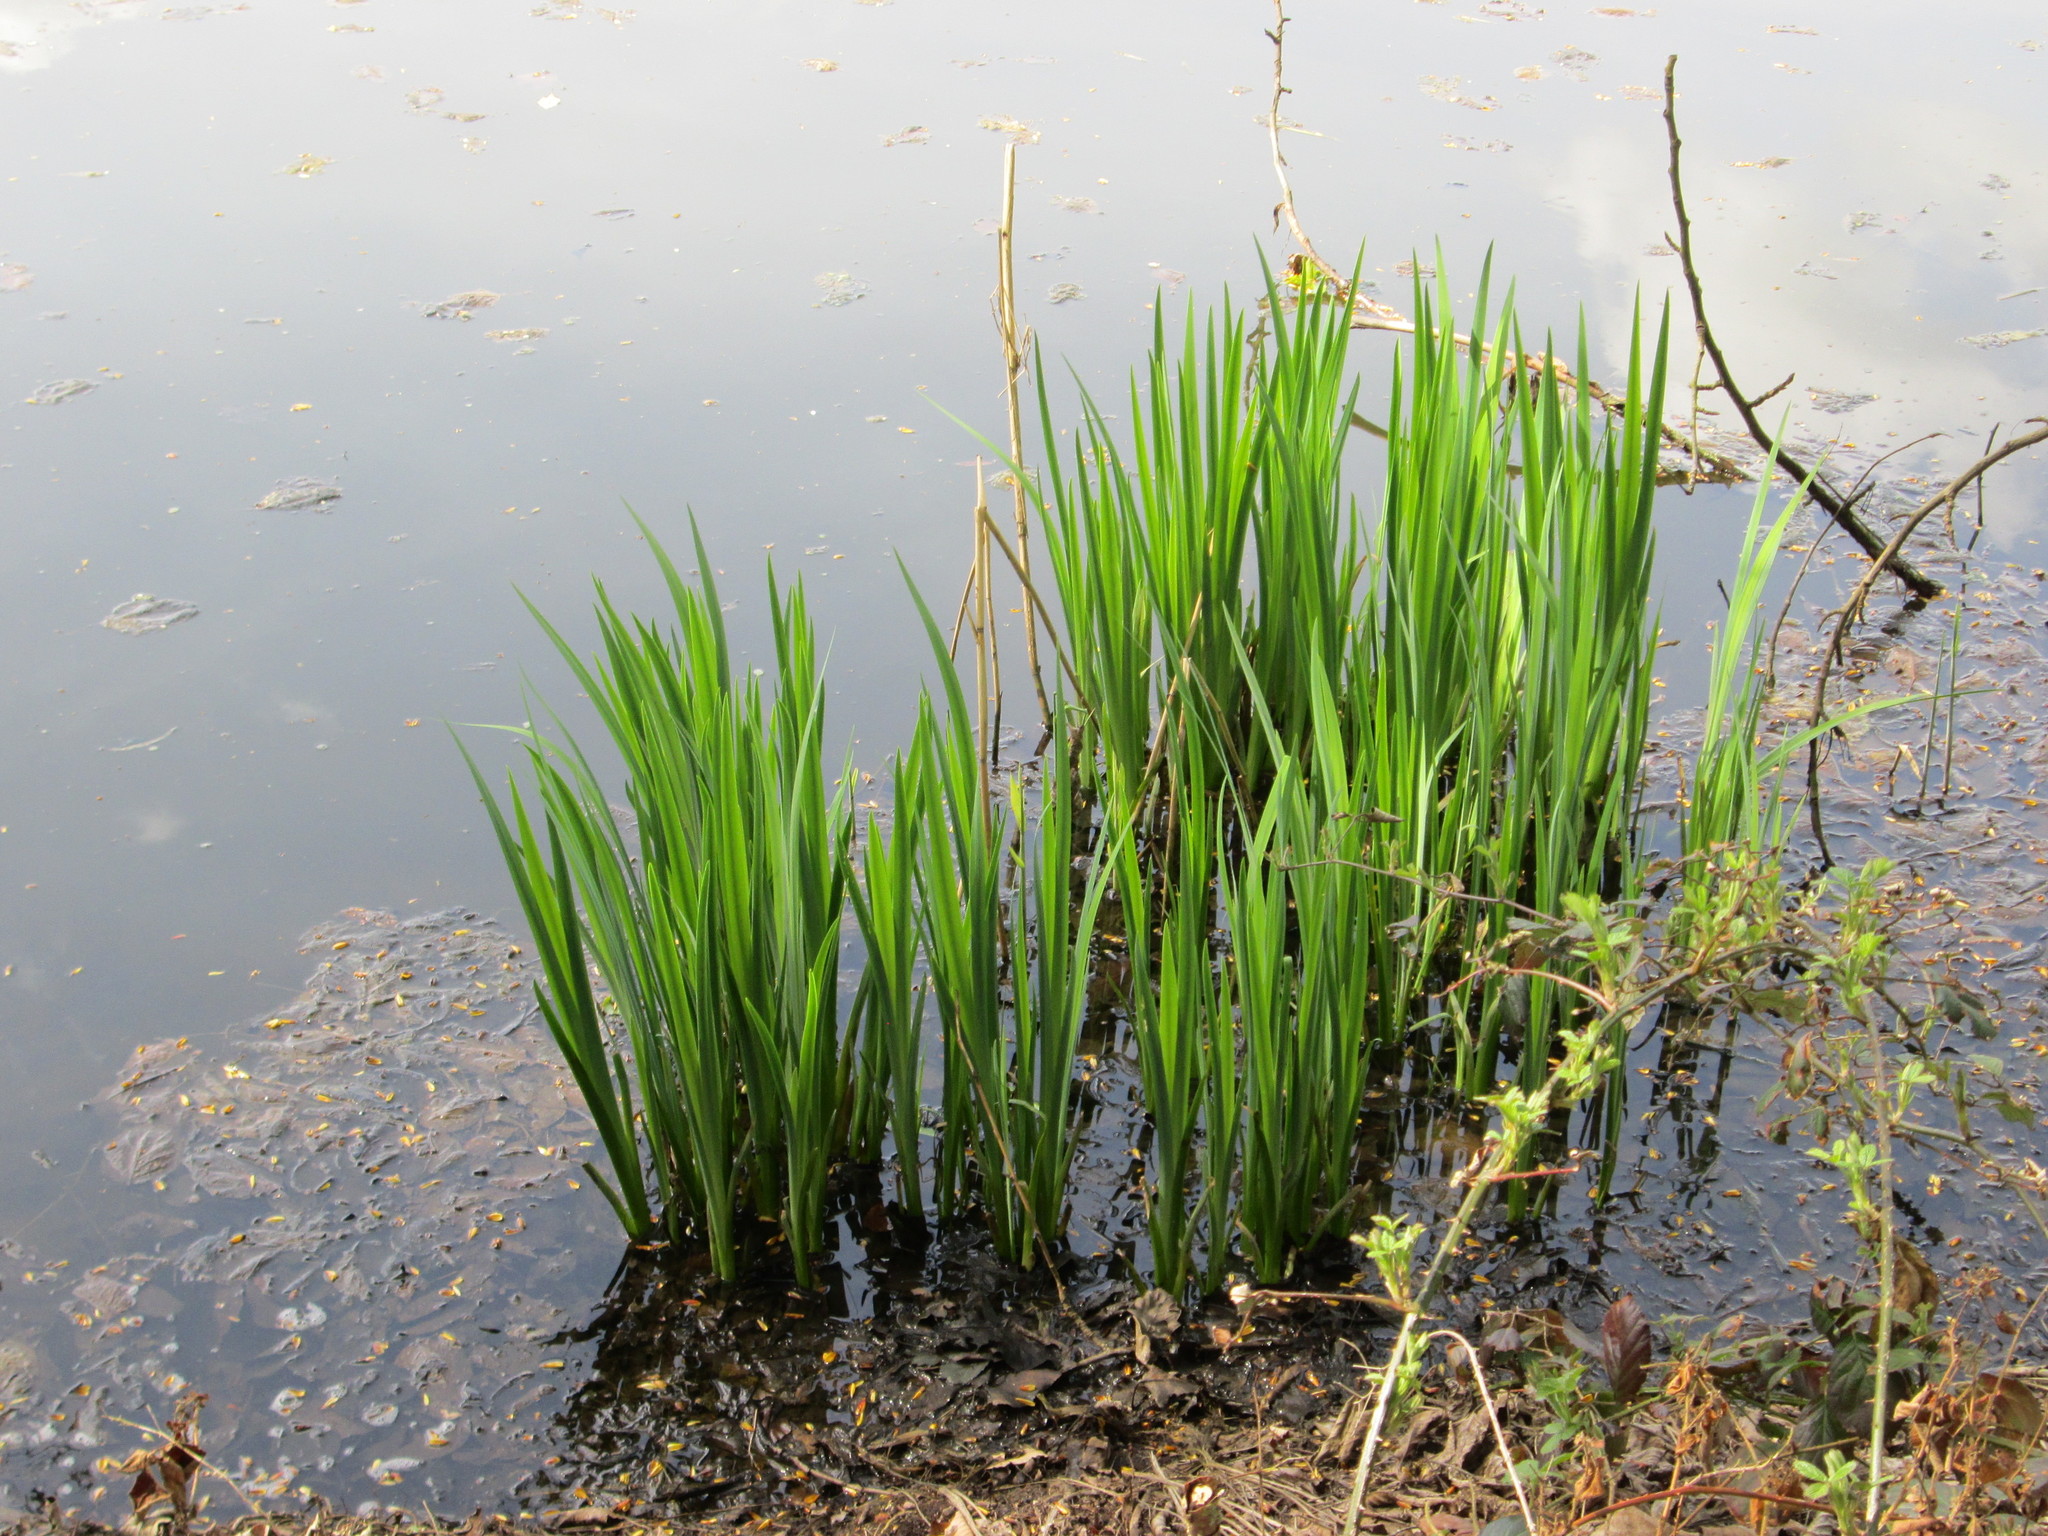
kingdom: Plantae
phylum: Tracheophyta
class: Liliopsida
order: Asparagales
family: Iridaceae
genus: Iris
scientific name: Iris pseudacorus
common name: Yellow flag
